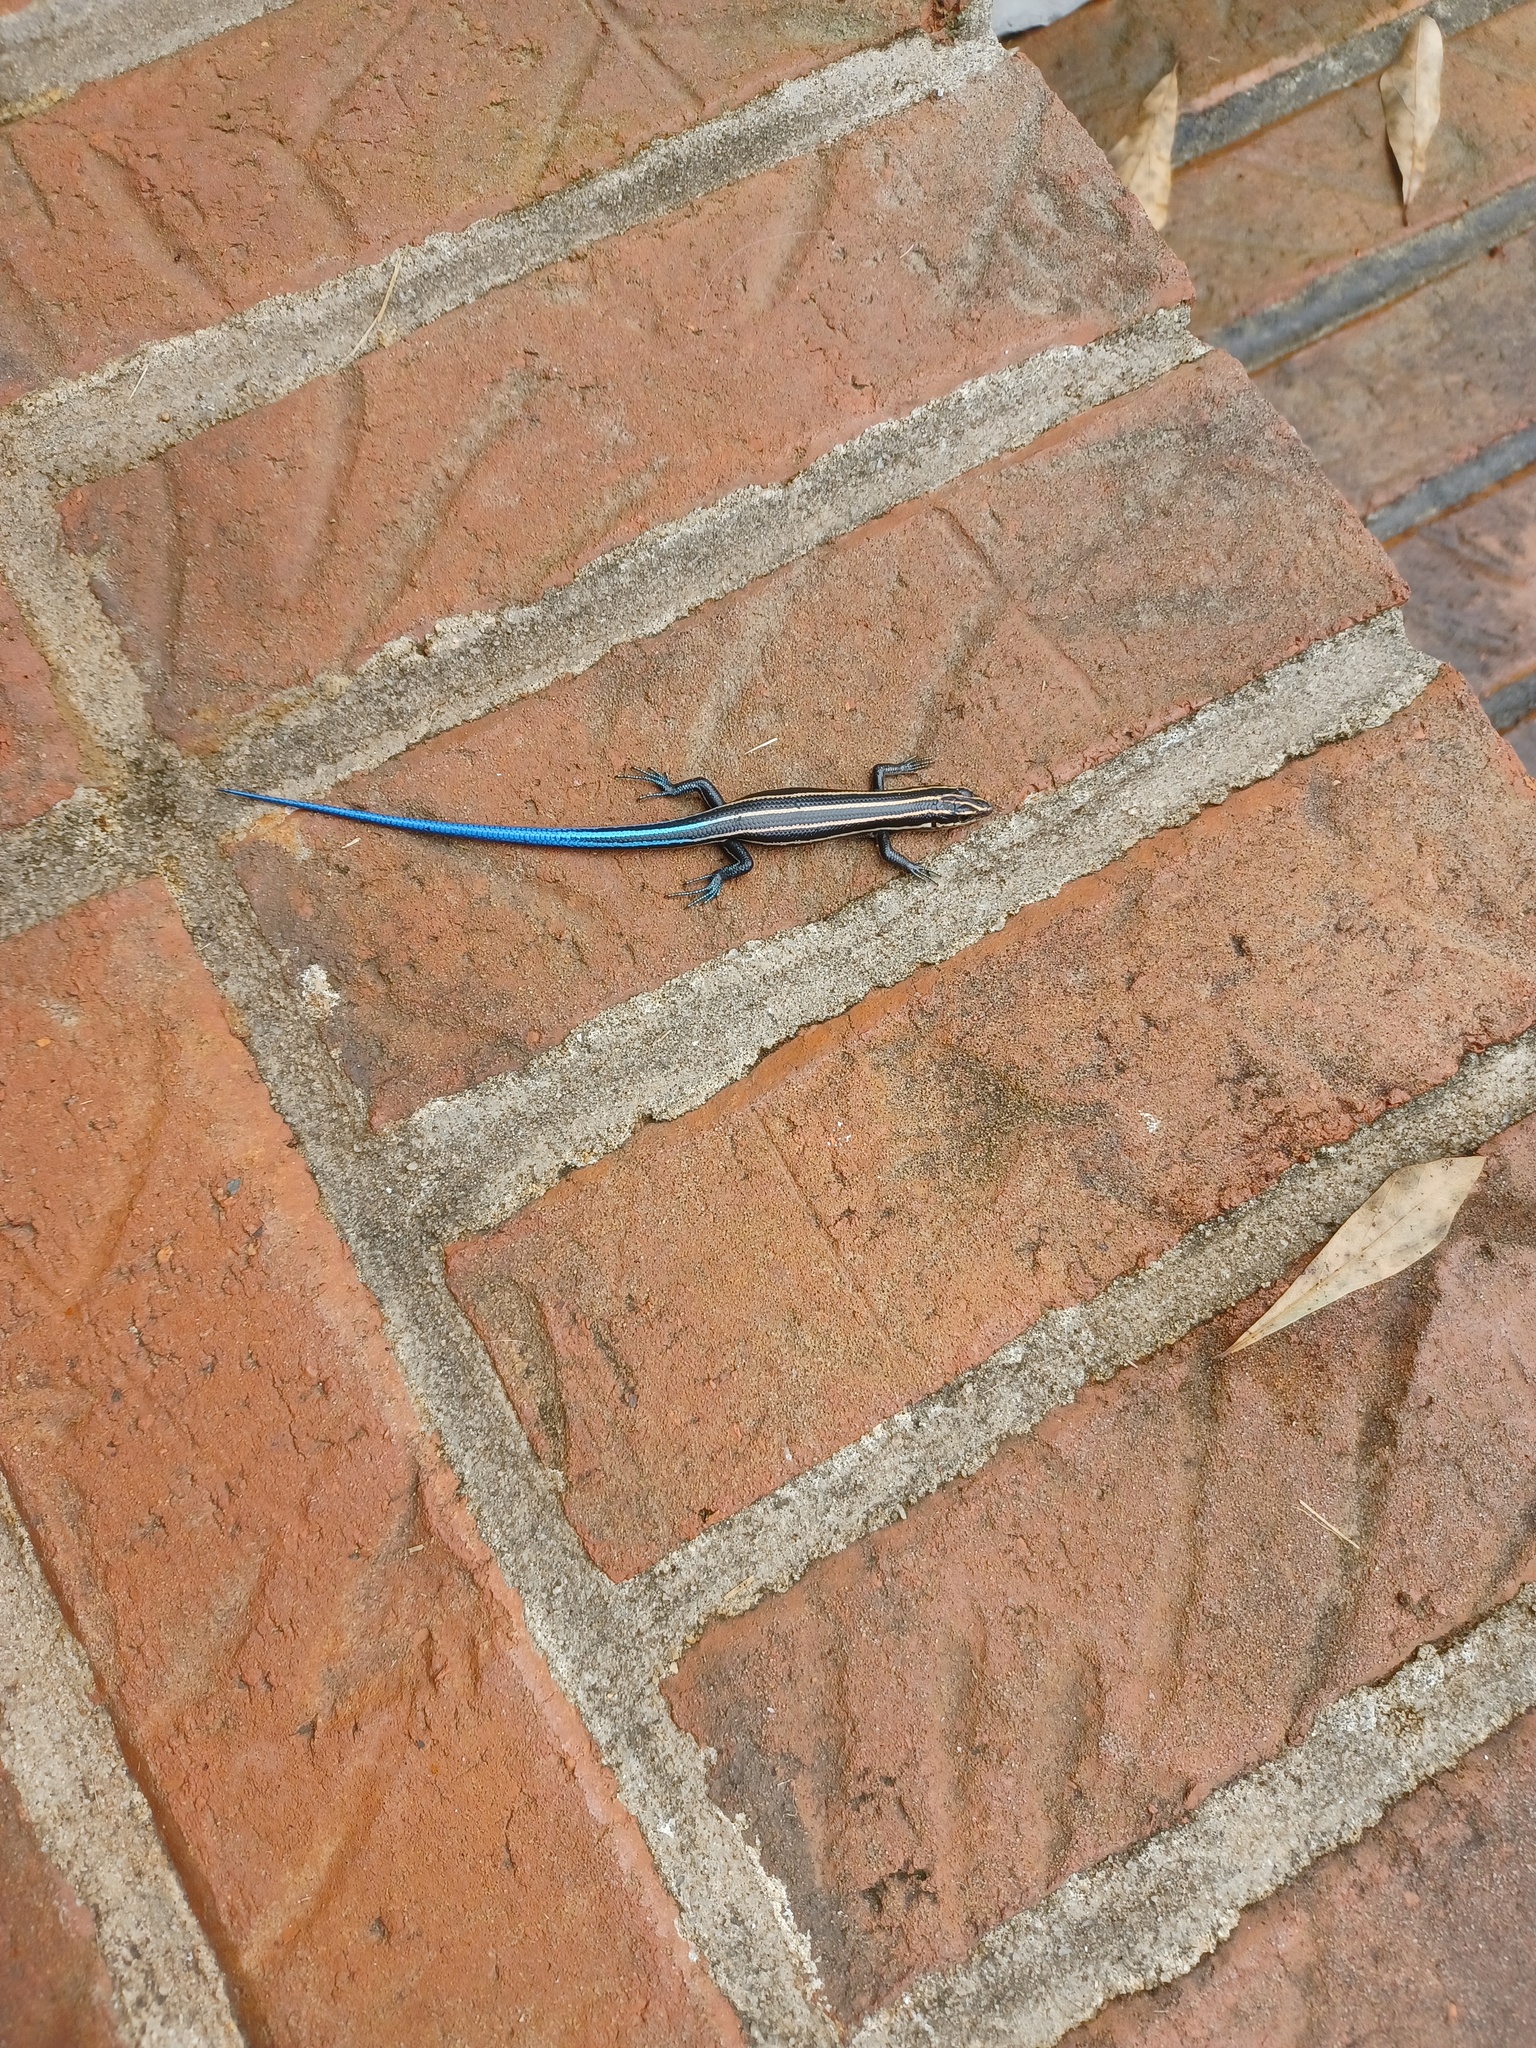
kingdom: Animalia
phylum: Chordata
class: Squamata
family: Scincidae
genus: Plestiodon
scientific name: Plestiodon fasciatus
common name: Five-lined skink
